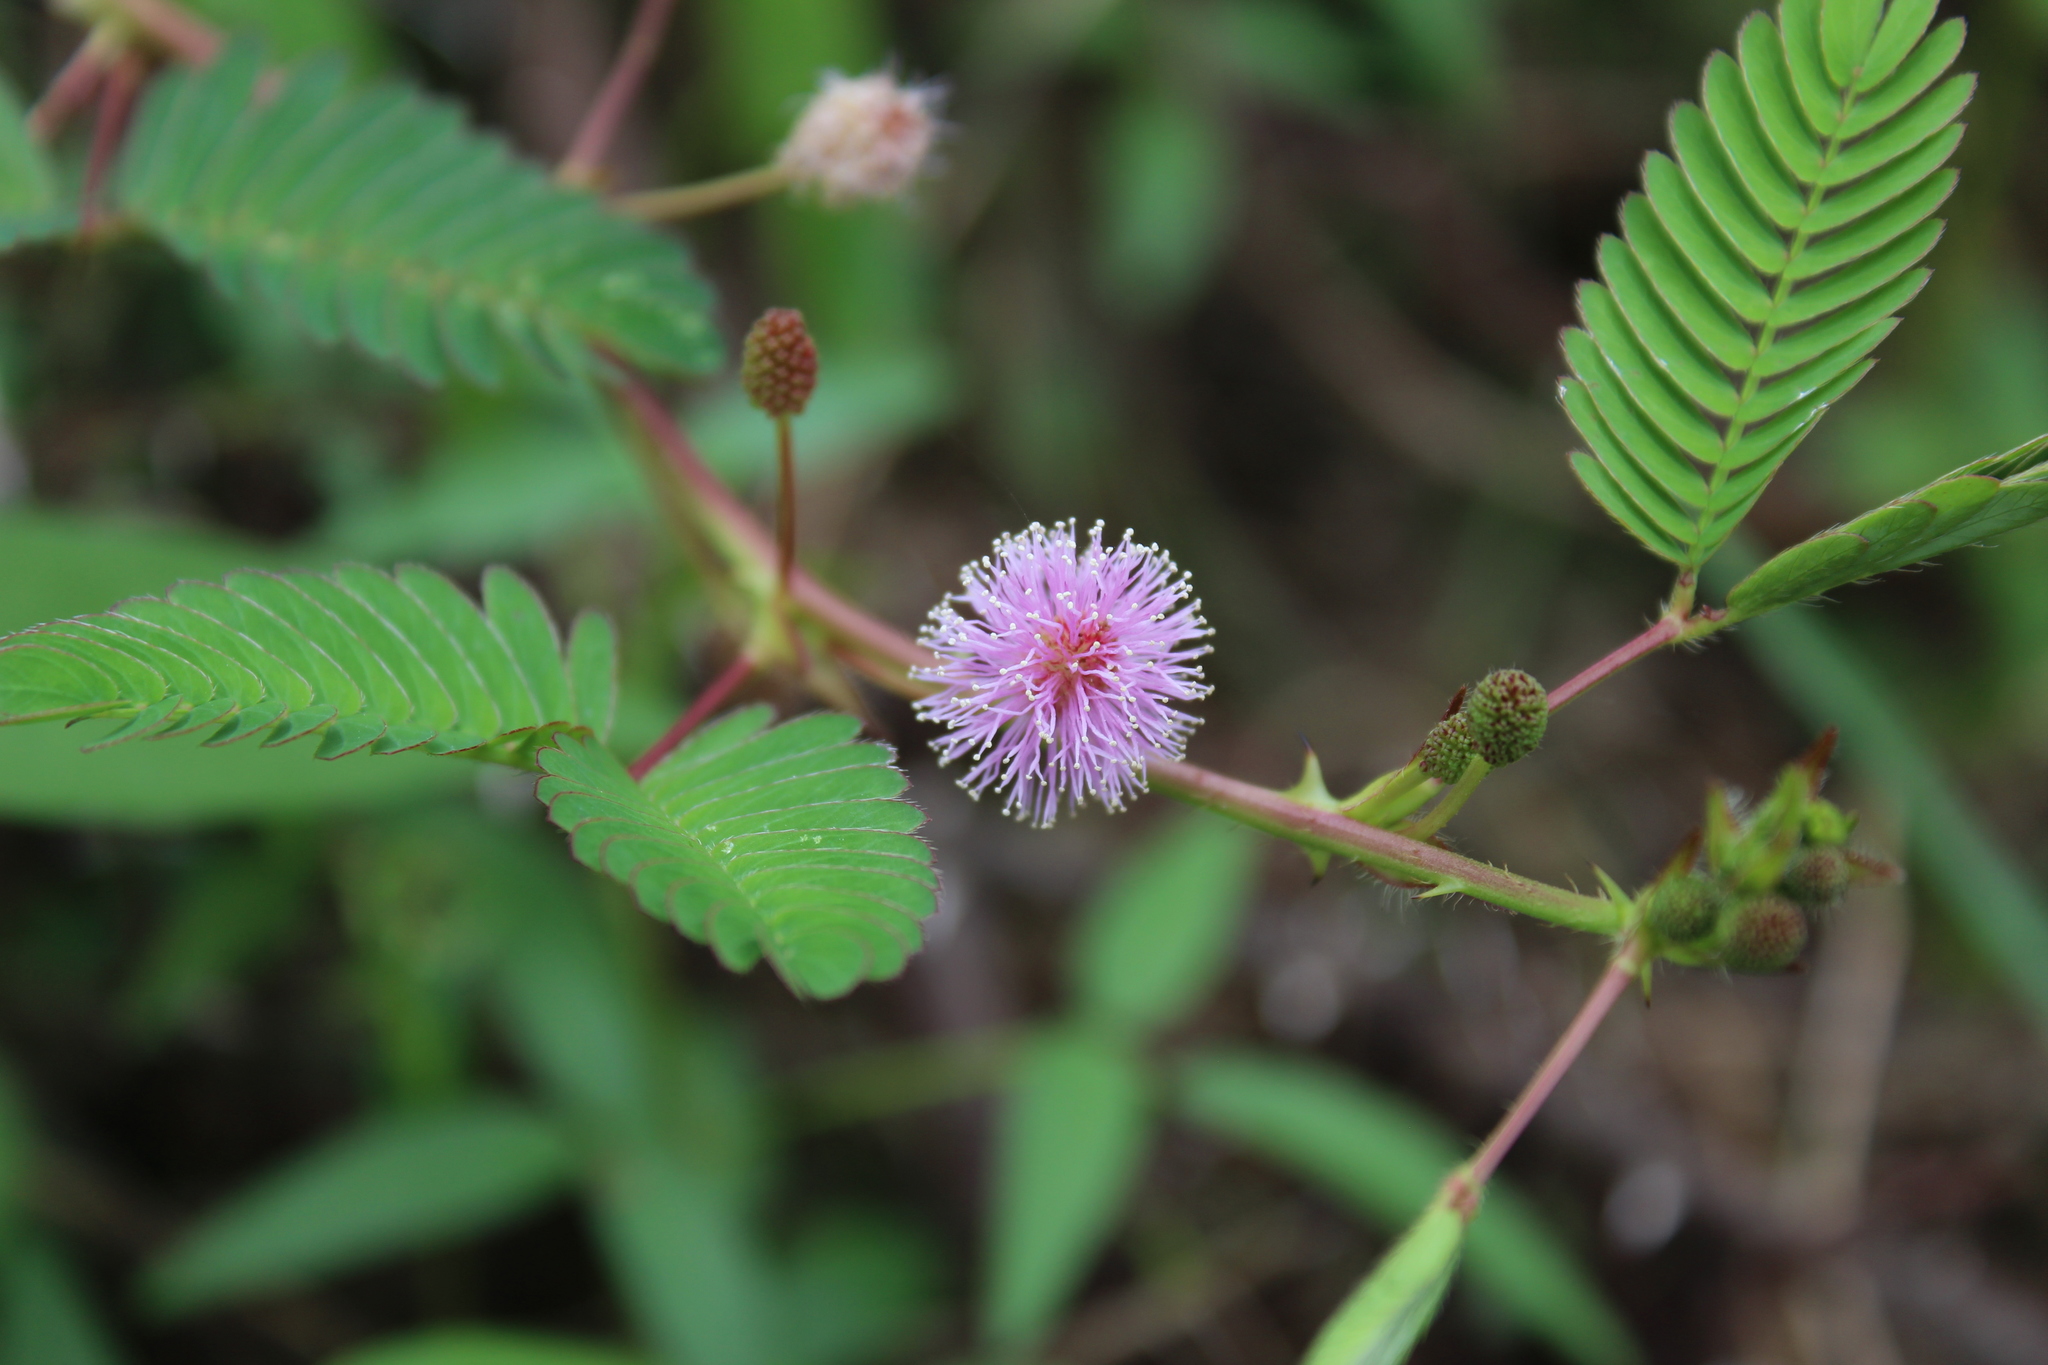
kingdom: Plantae
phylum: Tracheophyta
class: Magnoliopsida
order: Fabales
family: Fabaceae
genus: Mimosa
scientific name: Mimosa pudica
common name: Sensitive plant
